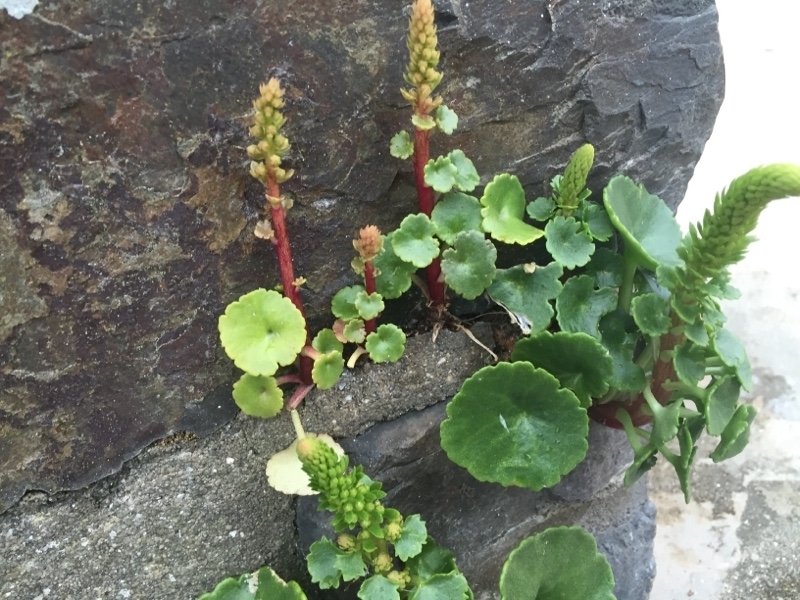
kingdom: Plantae
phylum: Tracheophyta
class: Magnoliopsida
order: Saxifragales
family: Crassulaceae
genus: Umbilicus
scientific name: Umbilicus rupestris
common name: Navelwort
